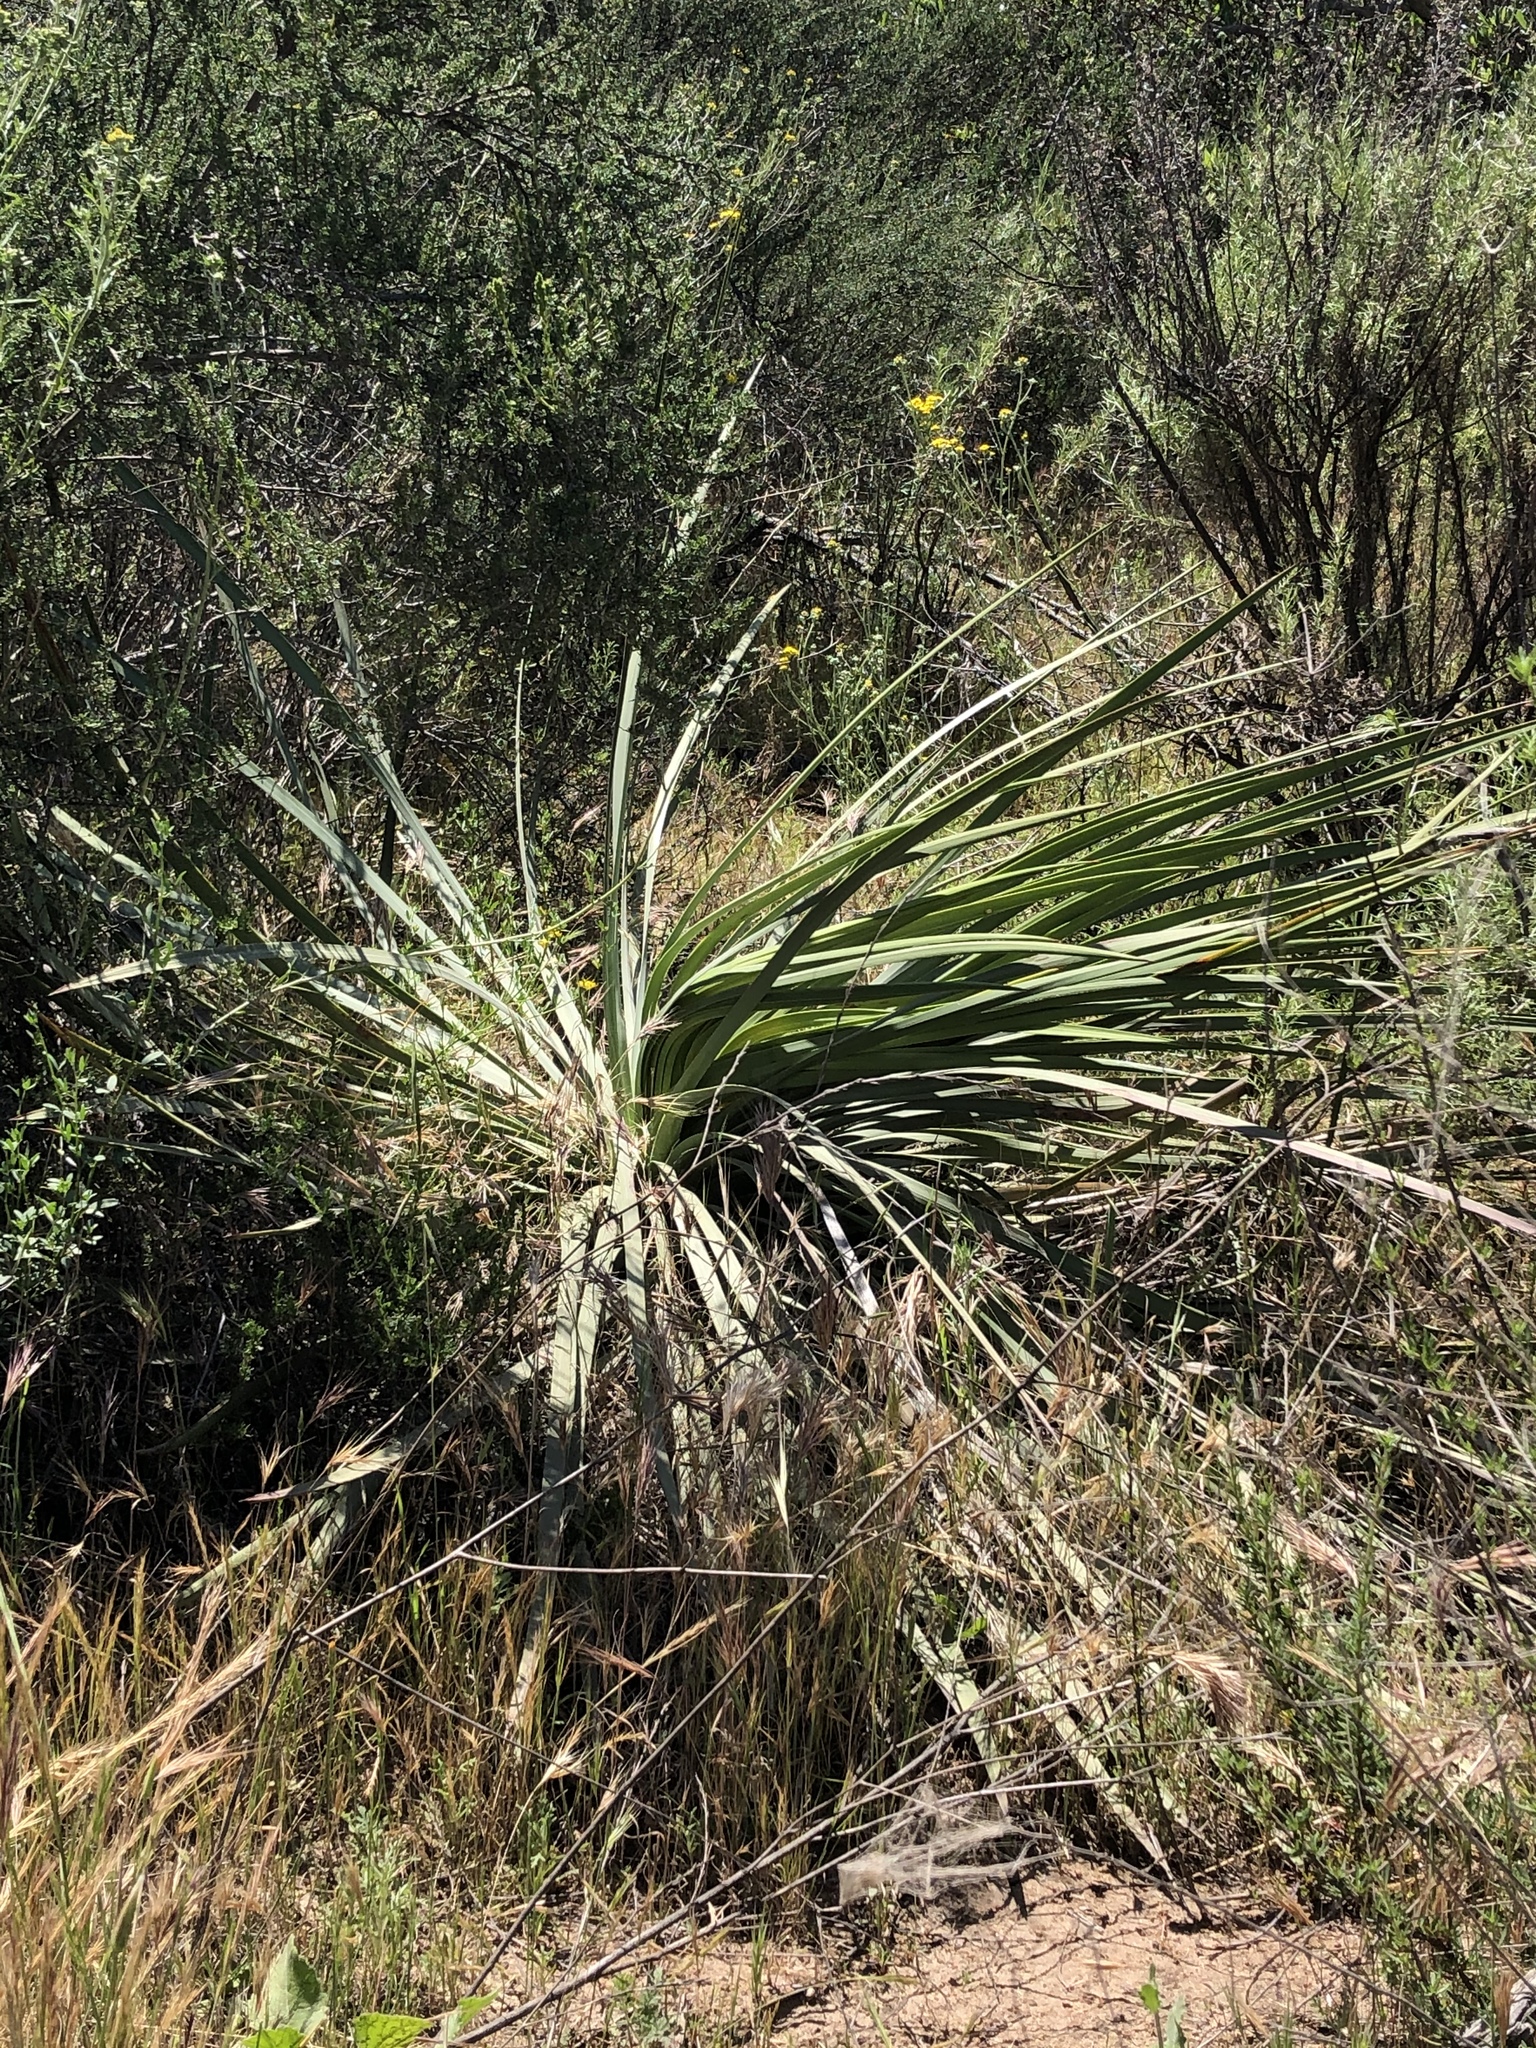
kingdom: Plantae
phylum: Tracheophyta
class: Liliopsida
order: Asparagales
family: Asparagaceae
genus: Hesperoyucca
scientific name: Hesperoyucca whipplei
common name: Our lord's-candle
